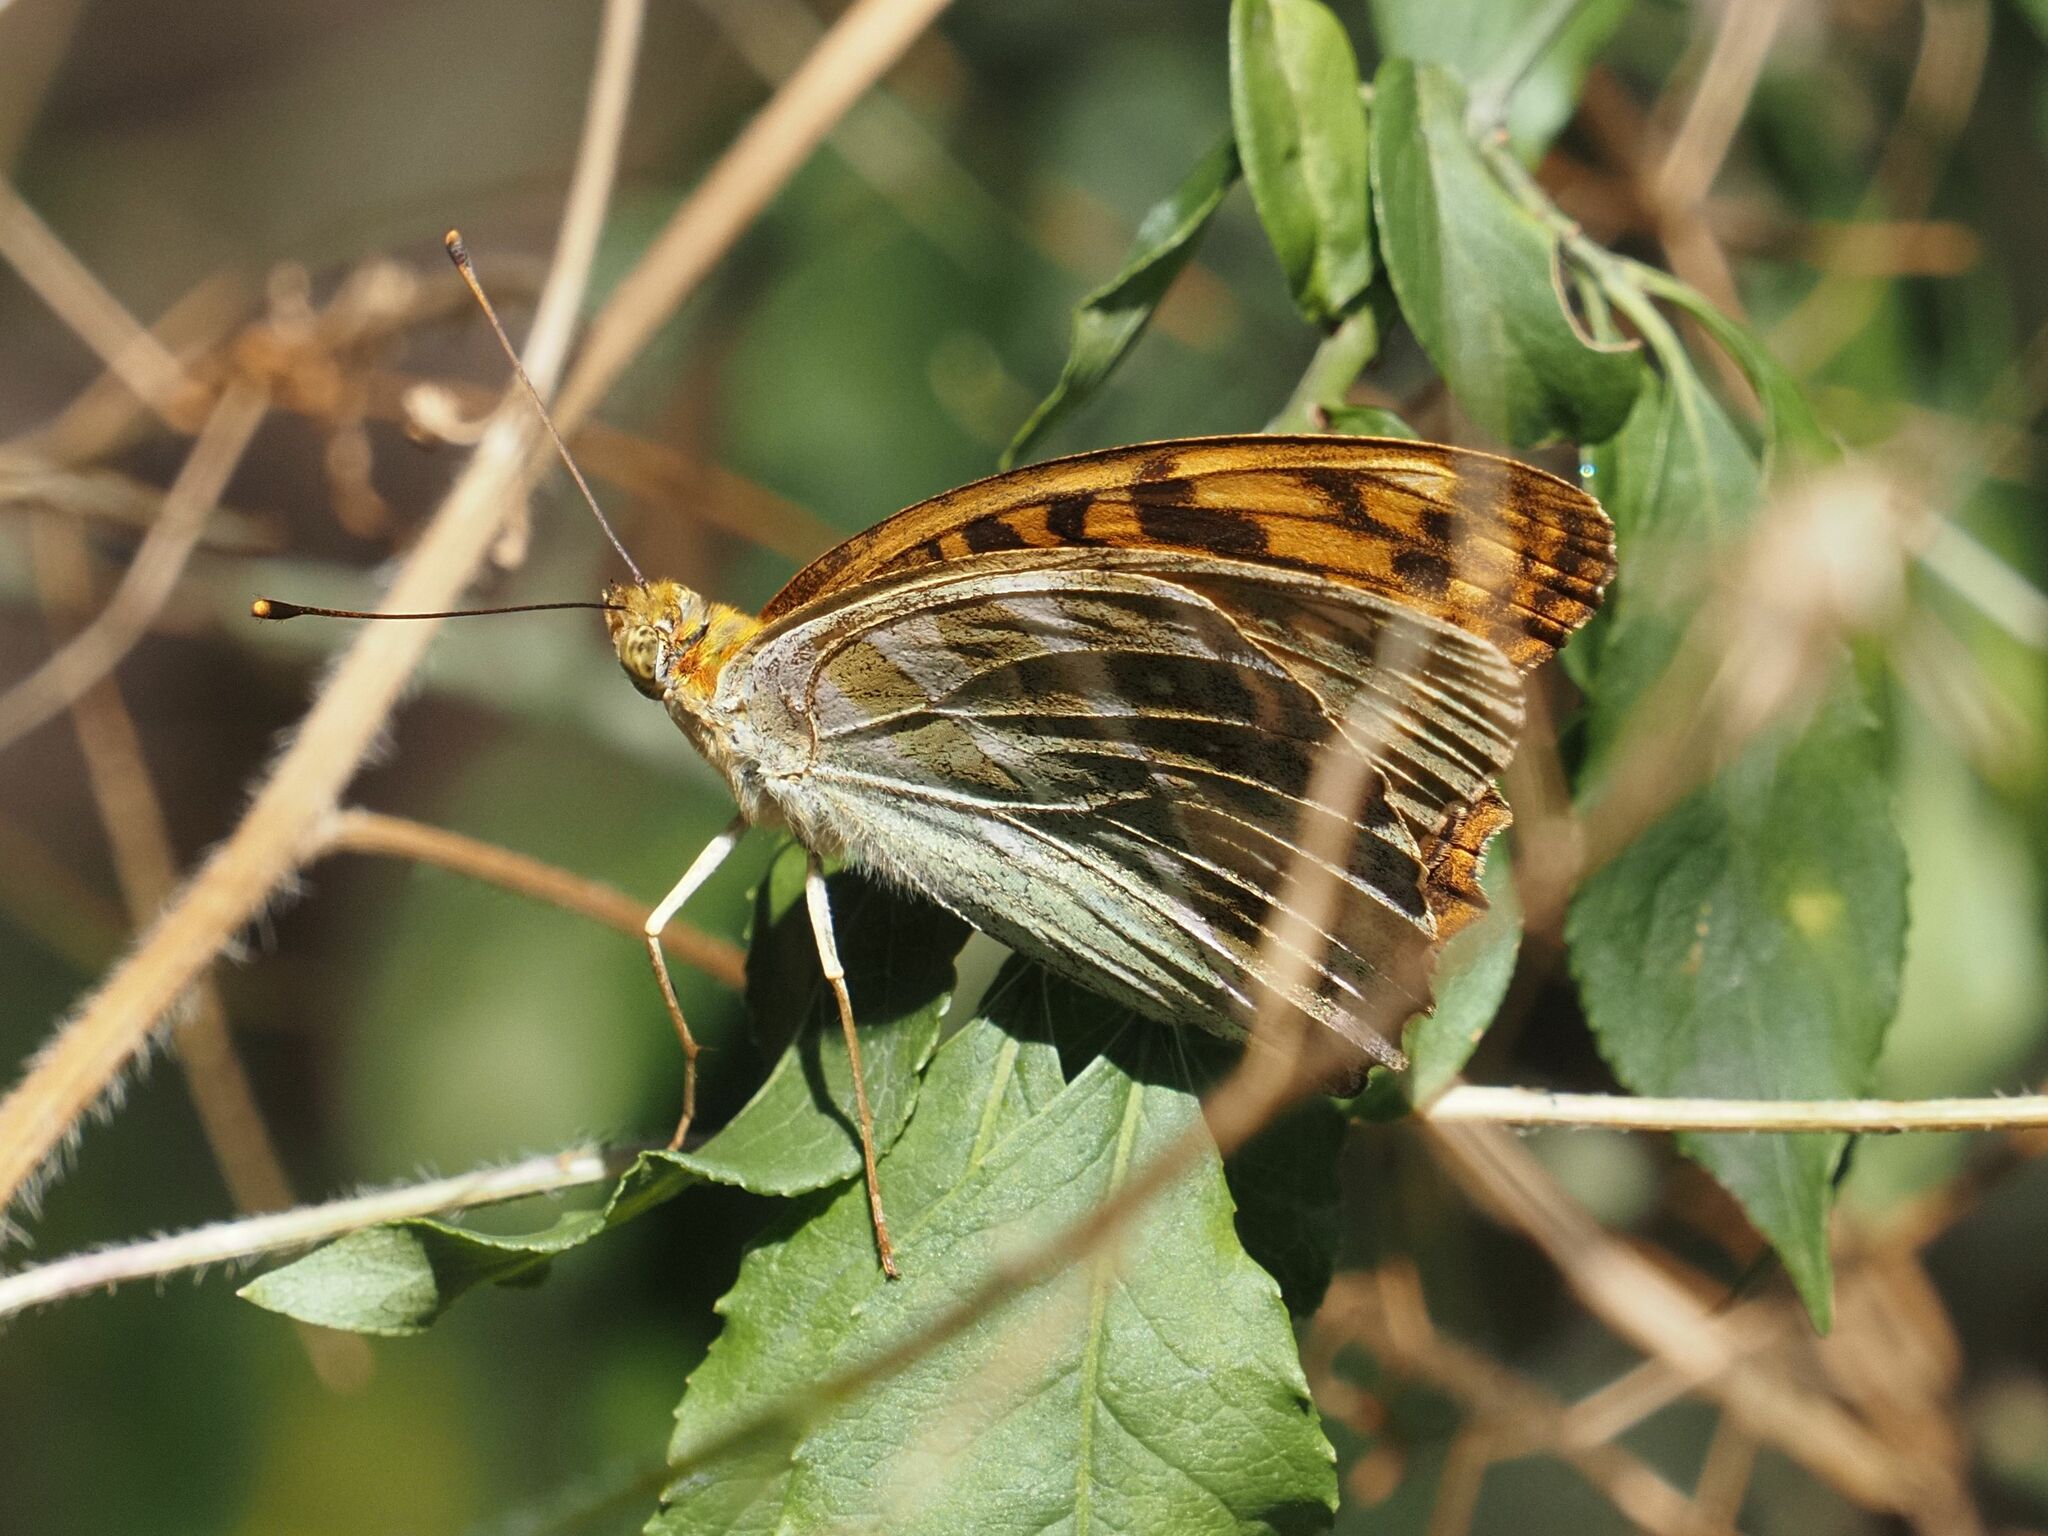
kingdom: Animalia
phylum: Arthropoda
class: Insecta
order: Lepidoptera
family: Nymphalidae
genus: Argynnis
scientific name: Argynnis paphia
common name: Silver-washed fritillary
